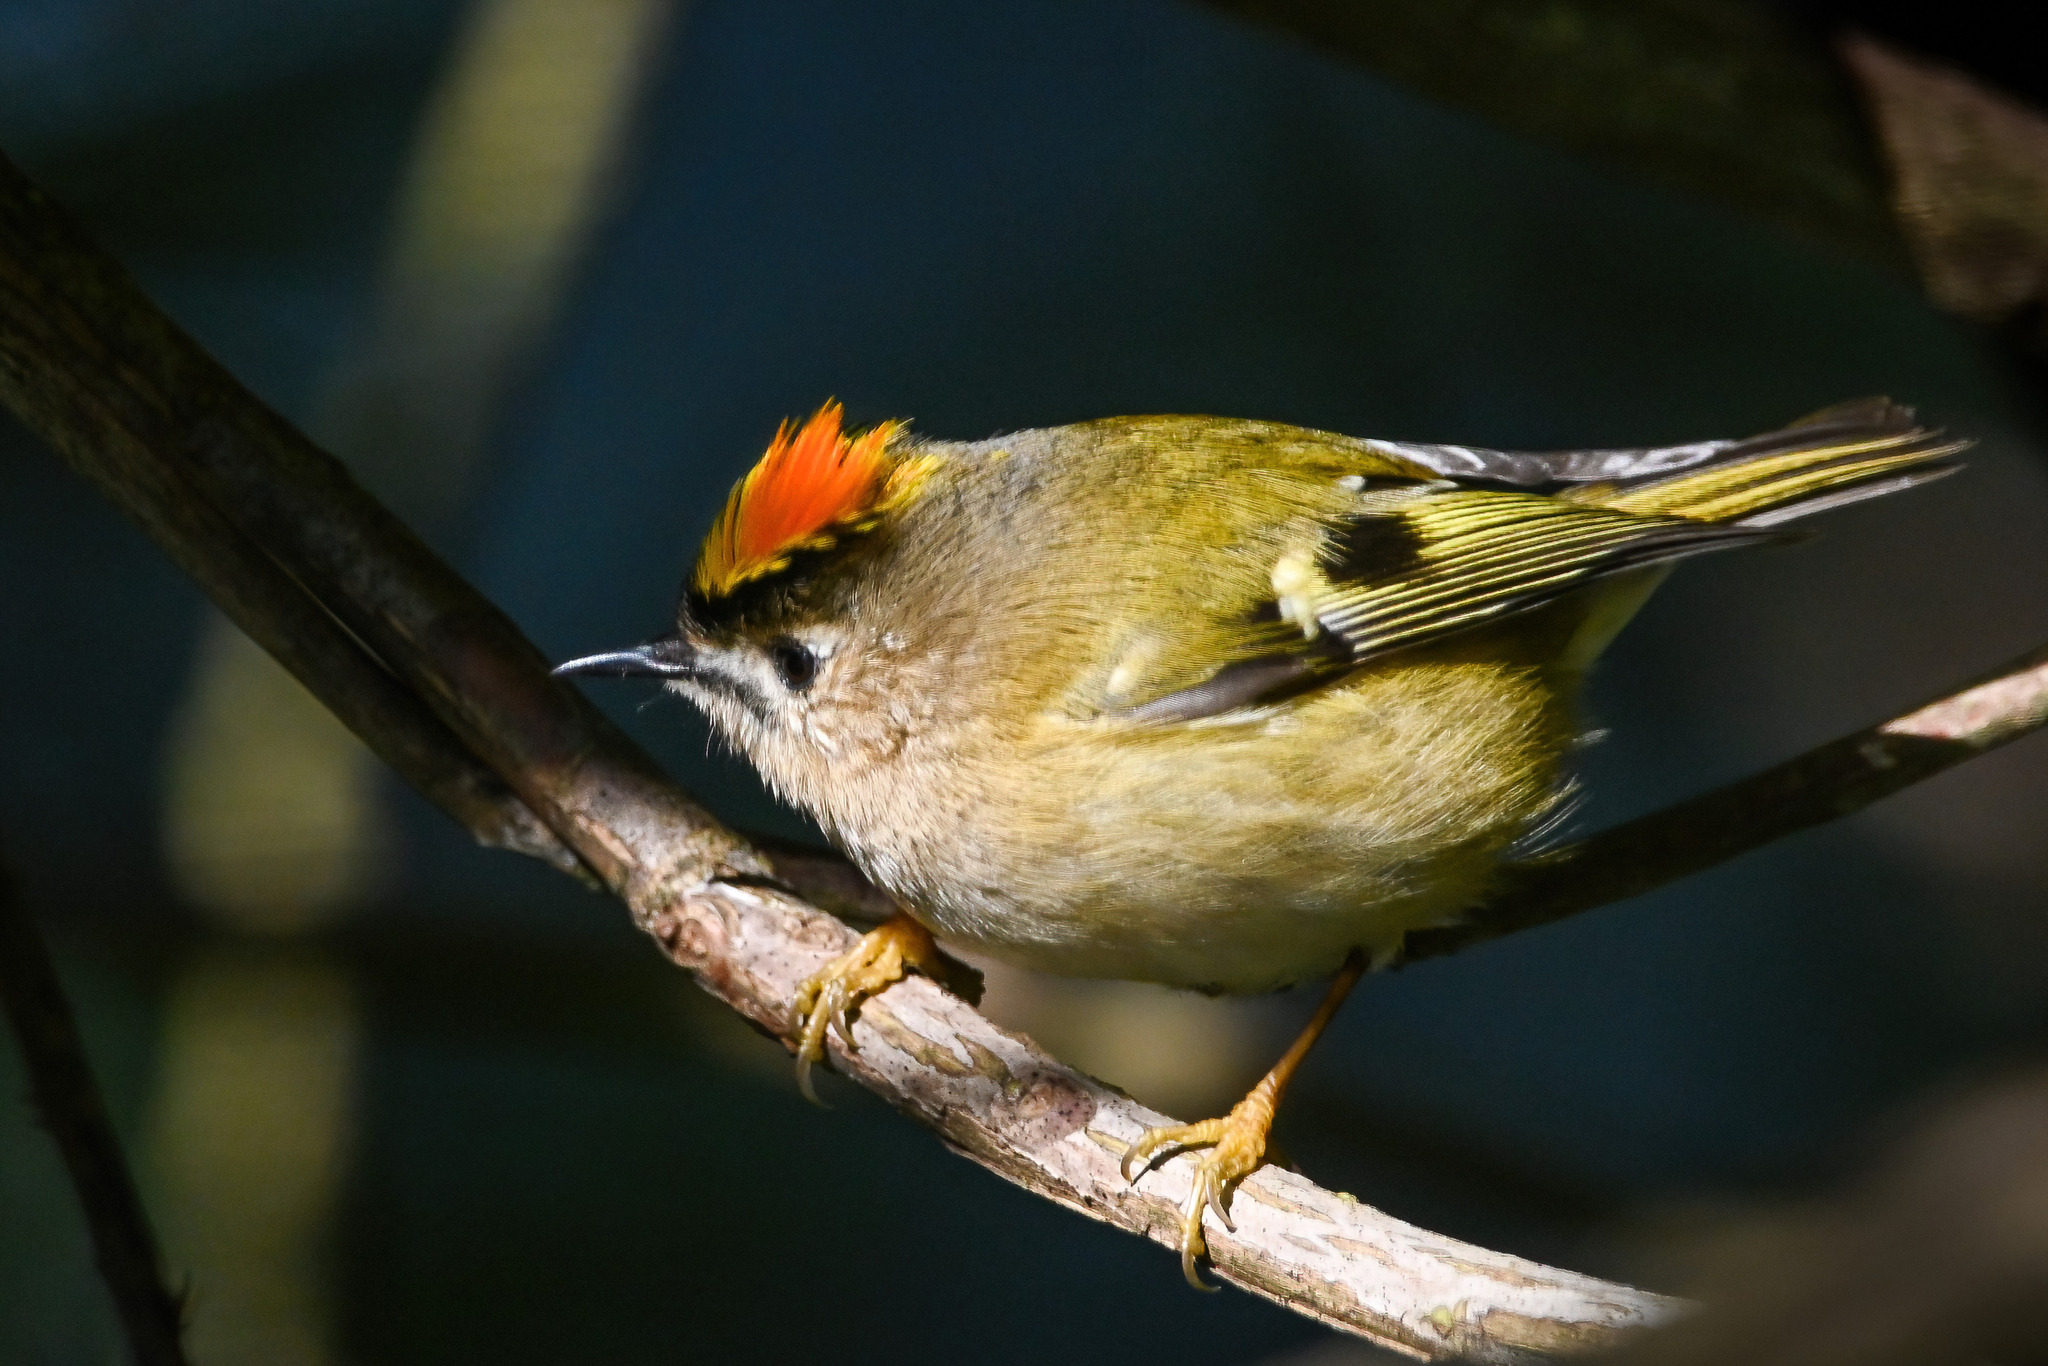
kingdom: Animalia
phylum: Chordata
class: Aves
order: Passeriformes
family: Regulidae
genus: Regulus
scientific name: Regulus regulus
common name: Goldcrest
